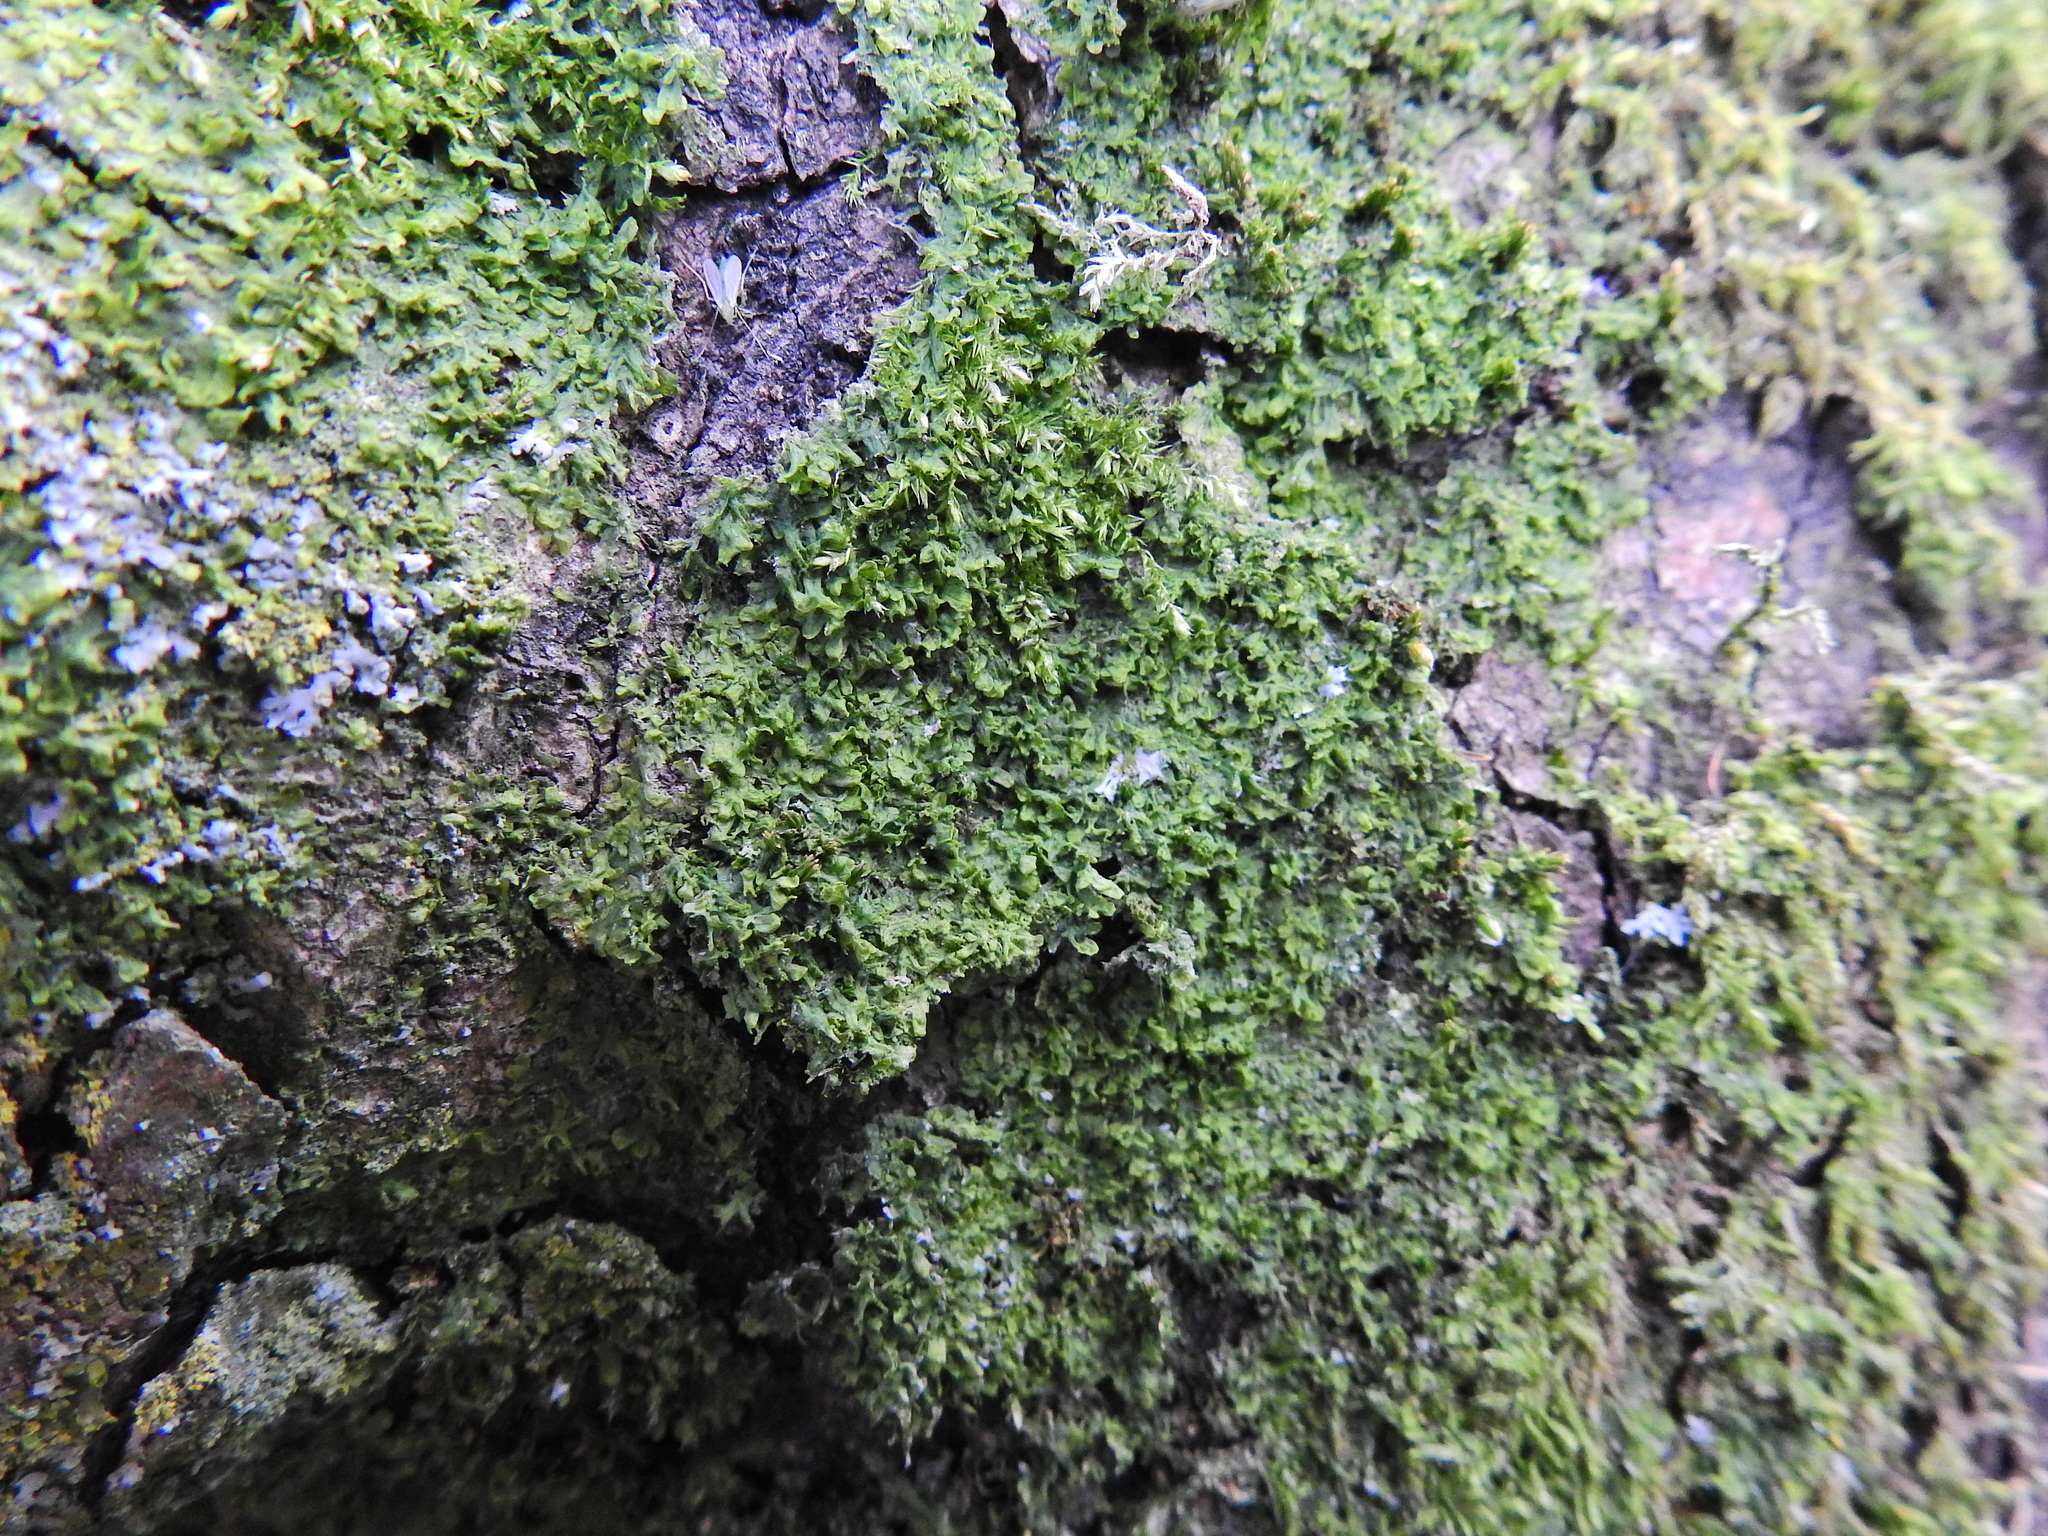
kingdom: Plantae
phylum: Marchantiophyta
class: Jungermanniopsida
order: Metzgeriales
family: Metzgeriaceae
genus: Metzgeria
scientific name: Metzgeria violacea
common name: Blueish veilwort
